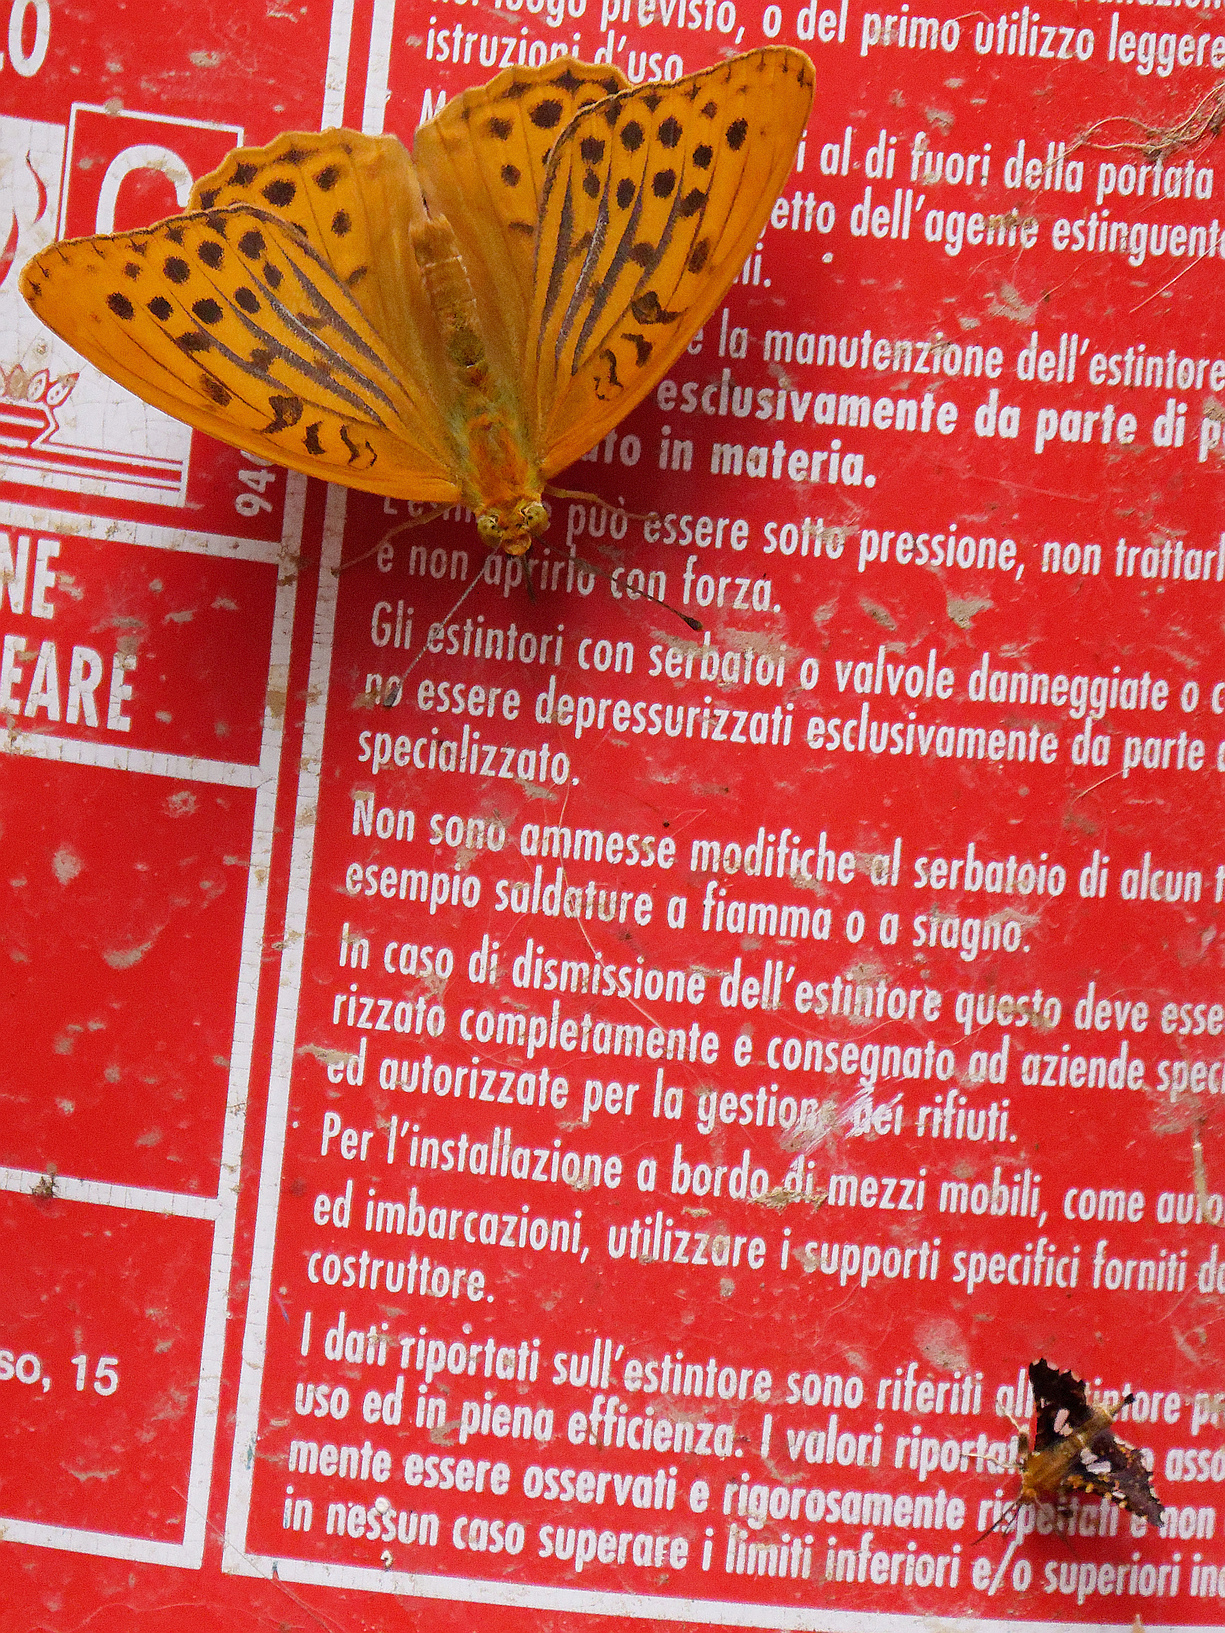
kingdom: Animalia
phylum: Arthropoda
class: Insecta
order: Lepidoptera
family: Nymphalidae
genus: Argynnis
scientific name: Argynnis paphia
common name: Silver-washed fritillary
